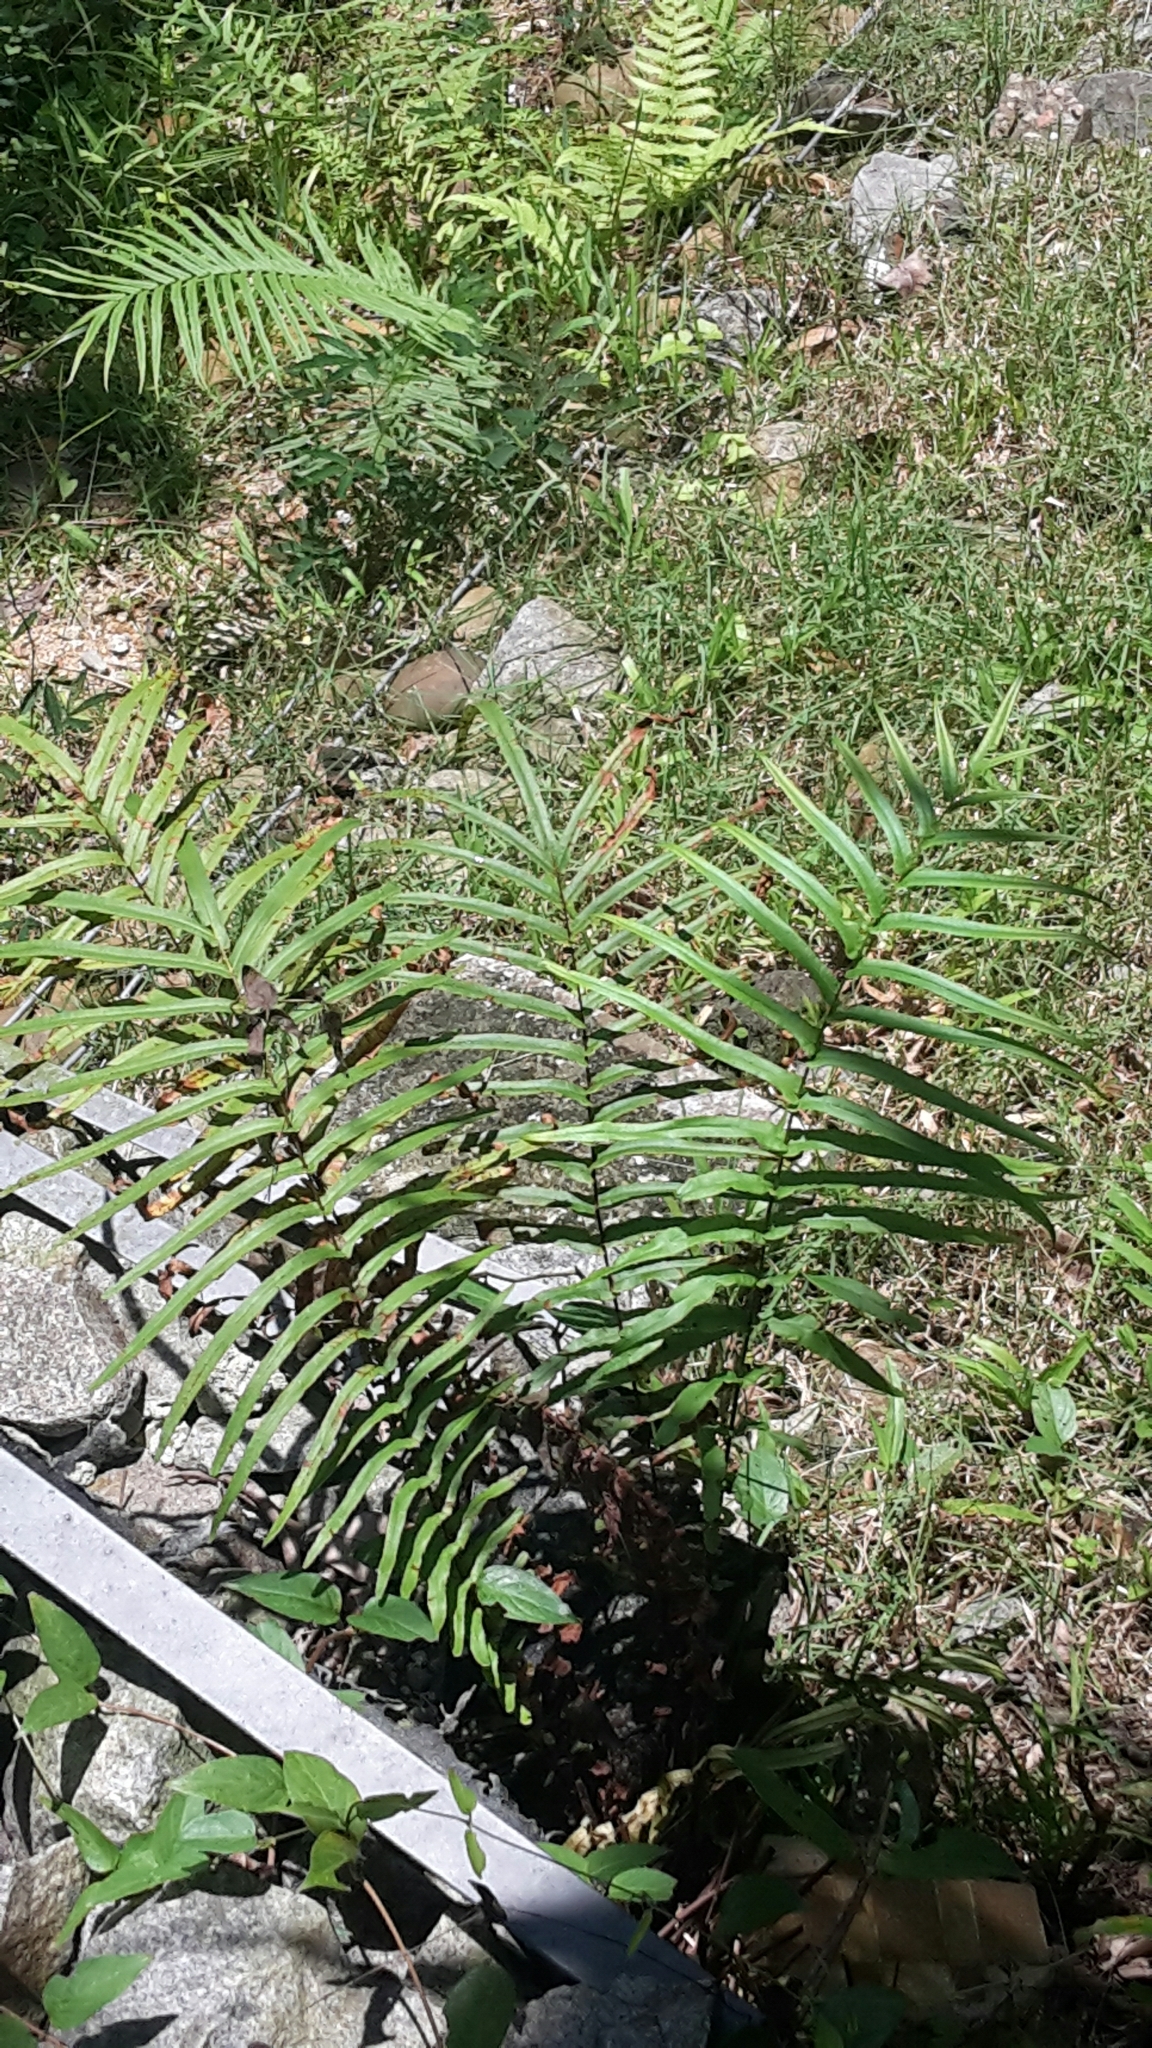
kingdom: Plantae
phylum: Tracheophyta
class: Polypodiopsida
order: Polypodiales
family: Pteridaceae
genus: Pteris
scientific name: Pteris vittata
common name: Ladder brake
